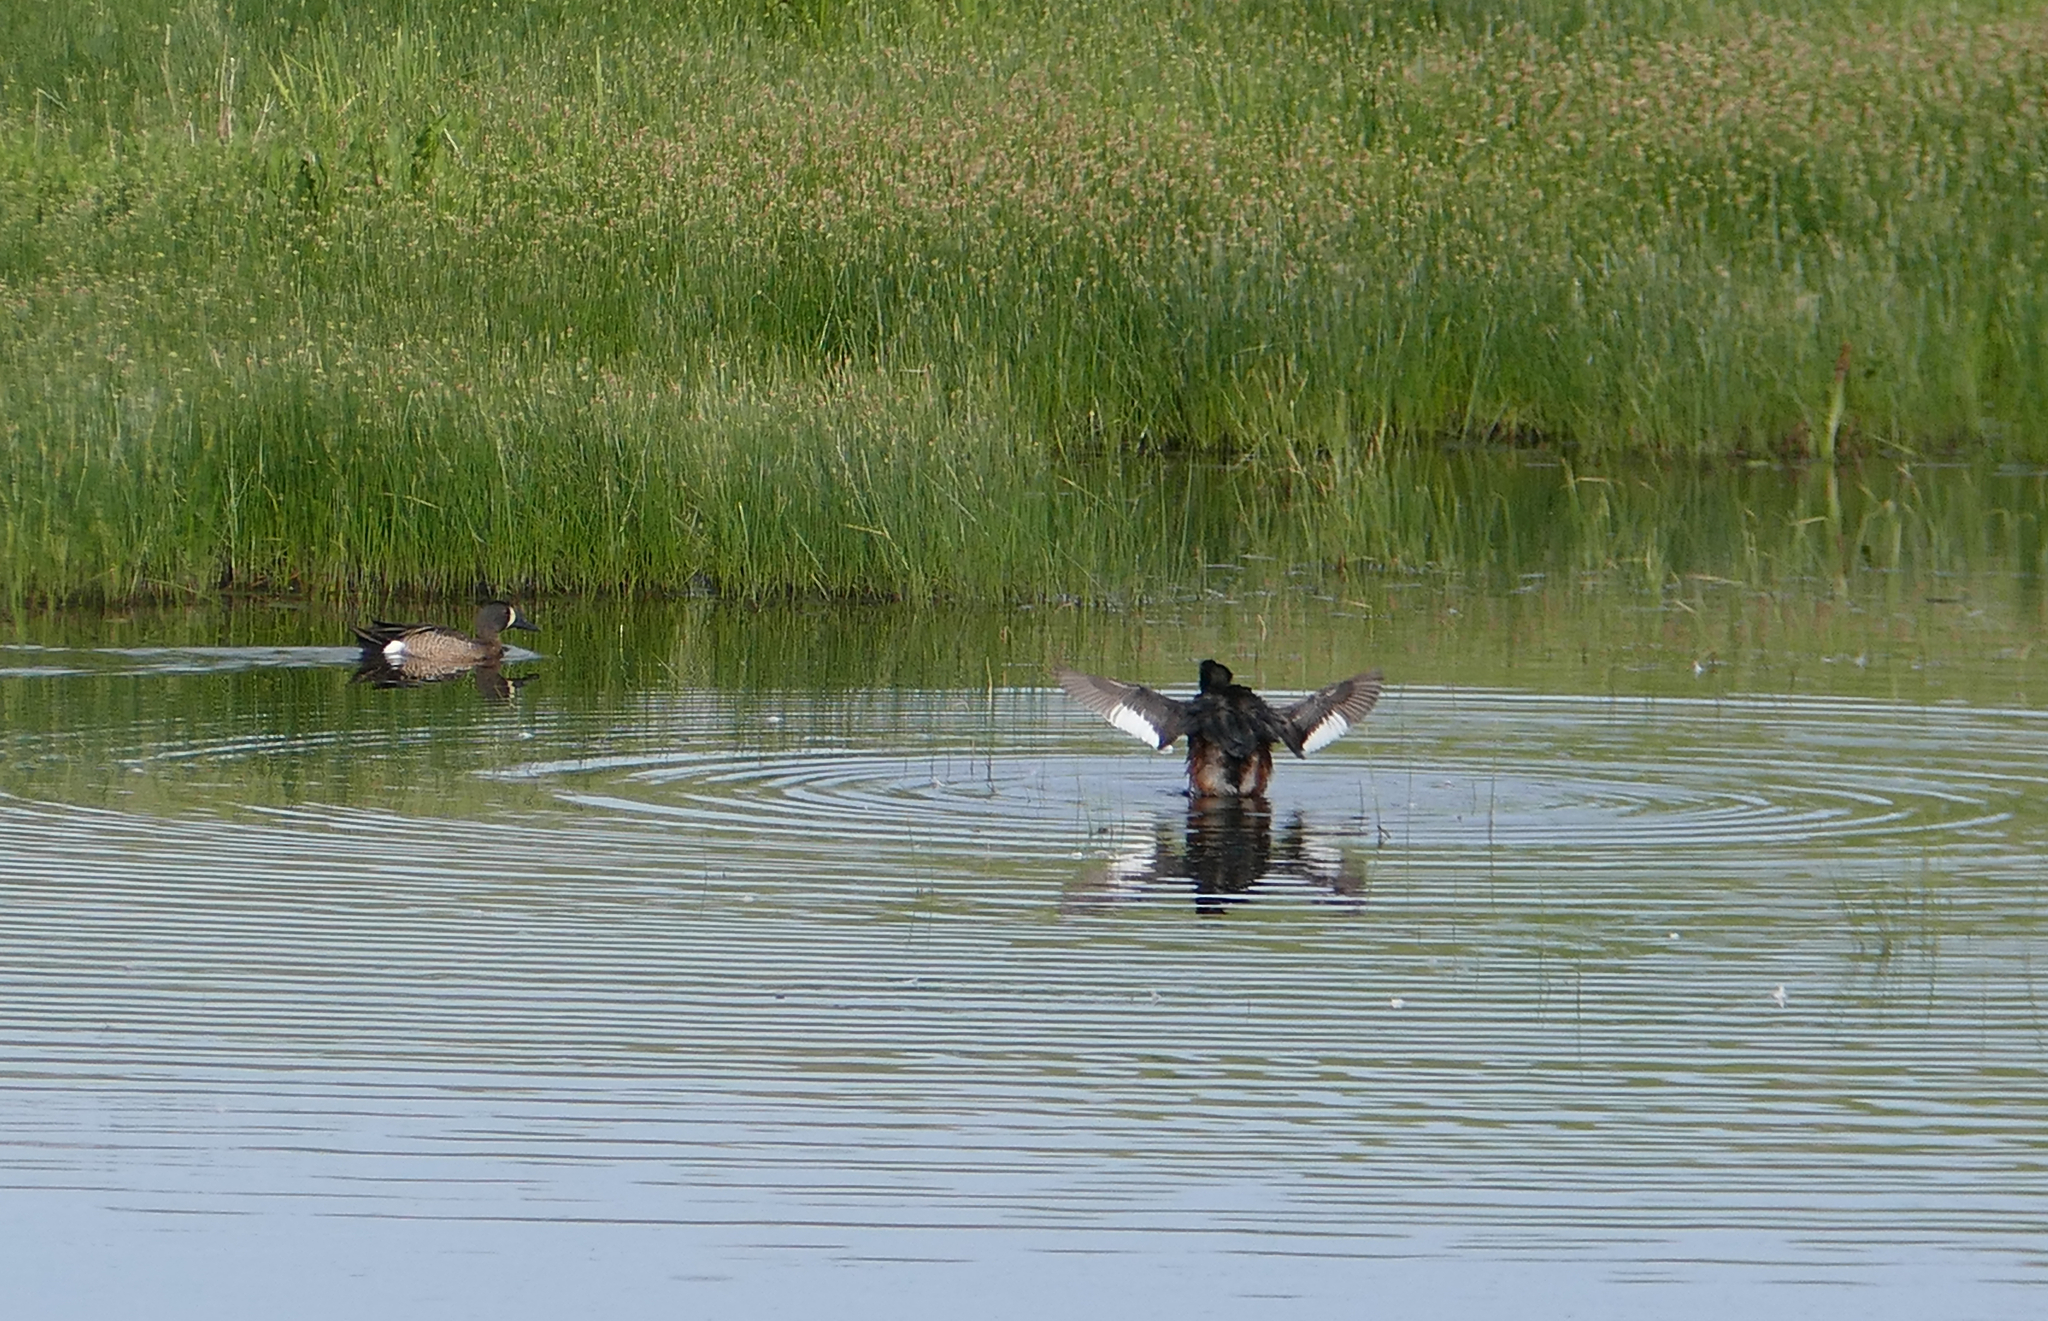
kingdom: Animalia
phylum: Chordata
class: Aves
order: Anseriformes
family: Anatidae
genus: Spatula
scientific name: Spatula discors
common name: Blue-winged teal
